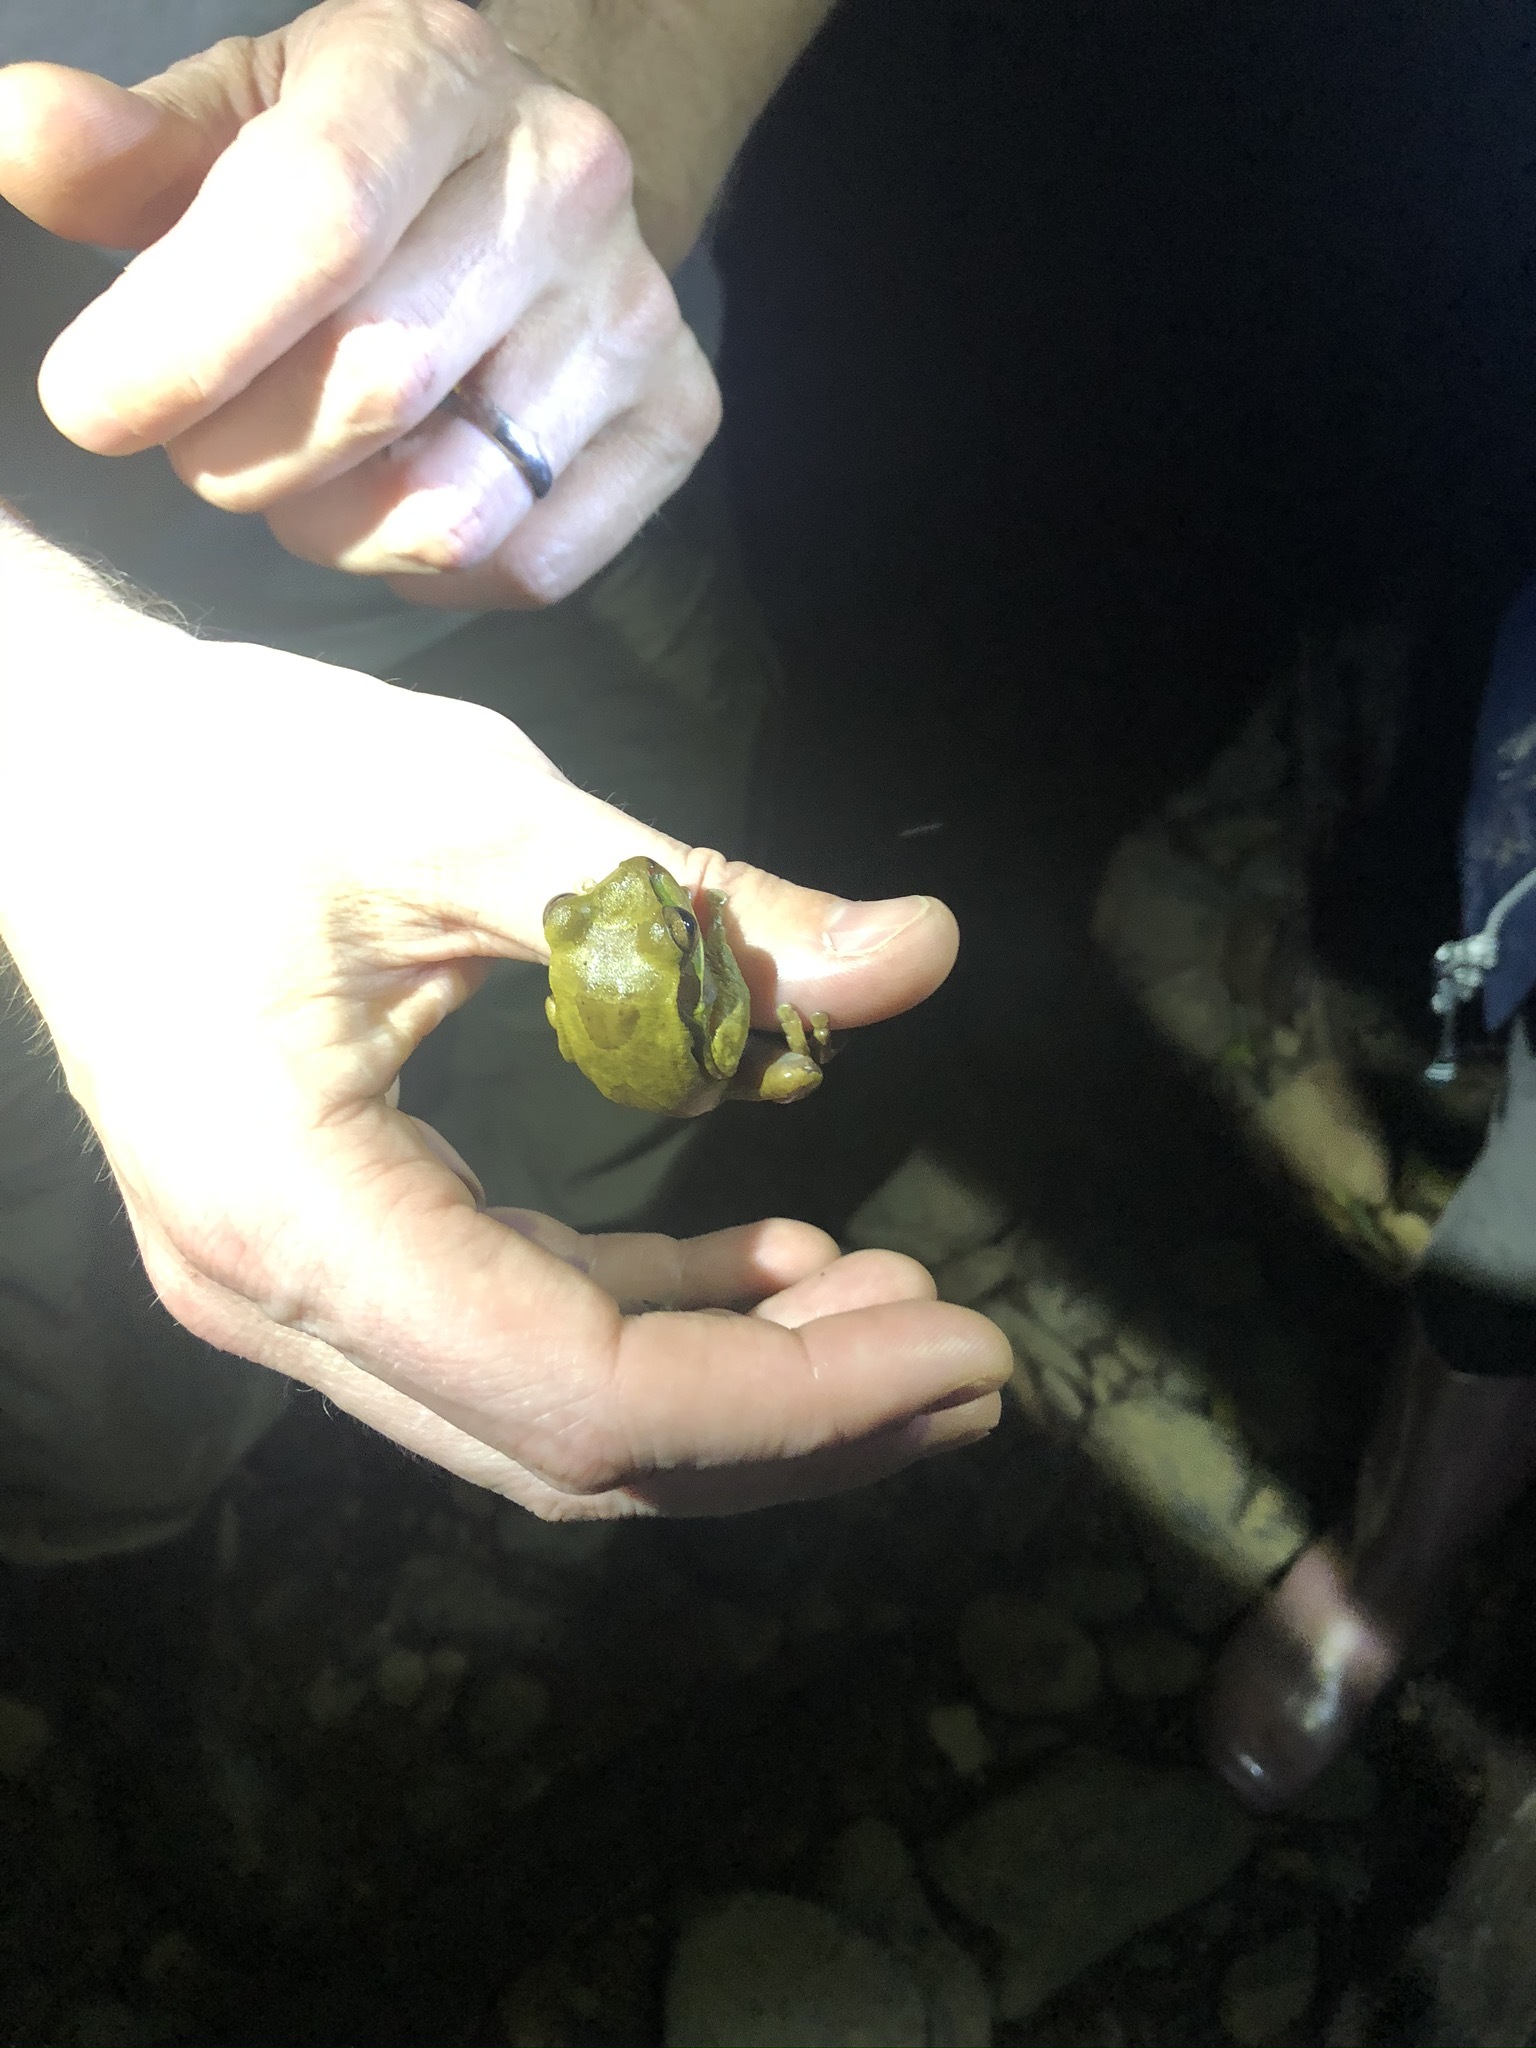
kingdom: Animalia
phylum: Chordata
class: Amphibia
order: Anura
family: Hylidae
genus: Smilisca
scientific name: Smilisca phaeota
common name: Central american smilisca
